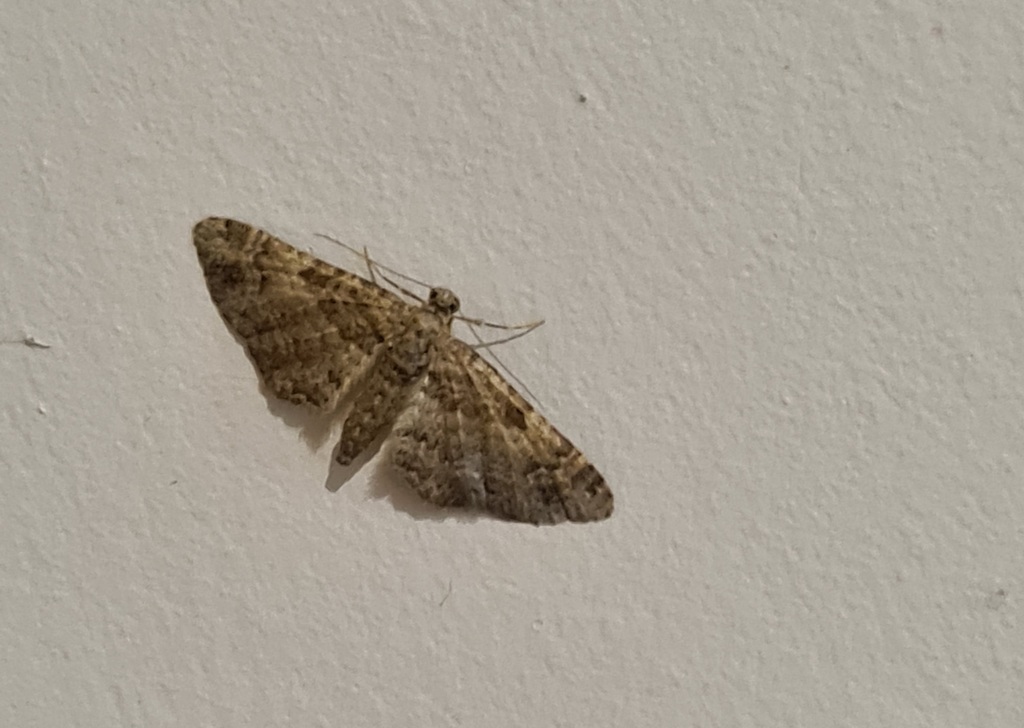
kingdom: Animalia
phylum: Arthropoda
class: Insecta
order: Lepidoptera
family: Geometridae
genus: Gymnoscelis
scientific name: Gymnoscelis rufifasciata
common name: Double-striped pug
